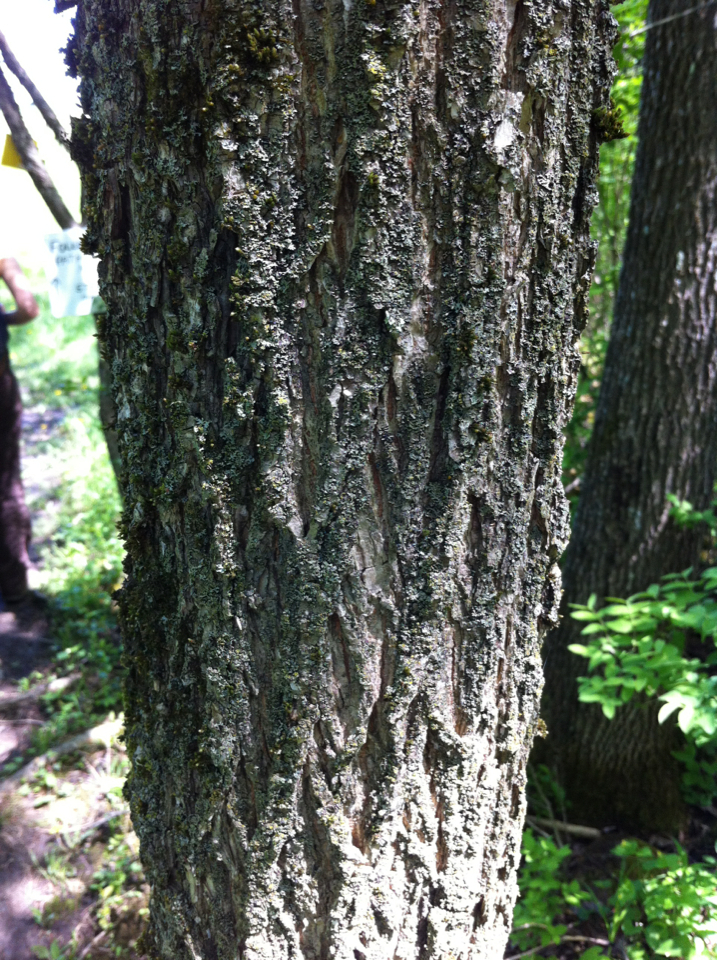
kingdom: Plantae
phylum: Tracheophyta
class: Magnoliopsida
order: Rosales
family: Ulmaceae
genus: Ulmus
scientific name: Ulmus americana
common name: American elm
